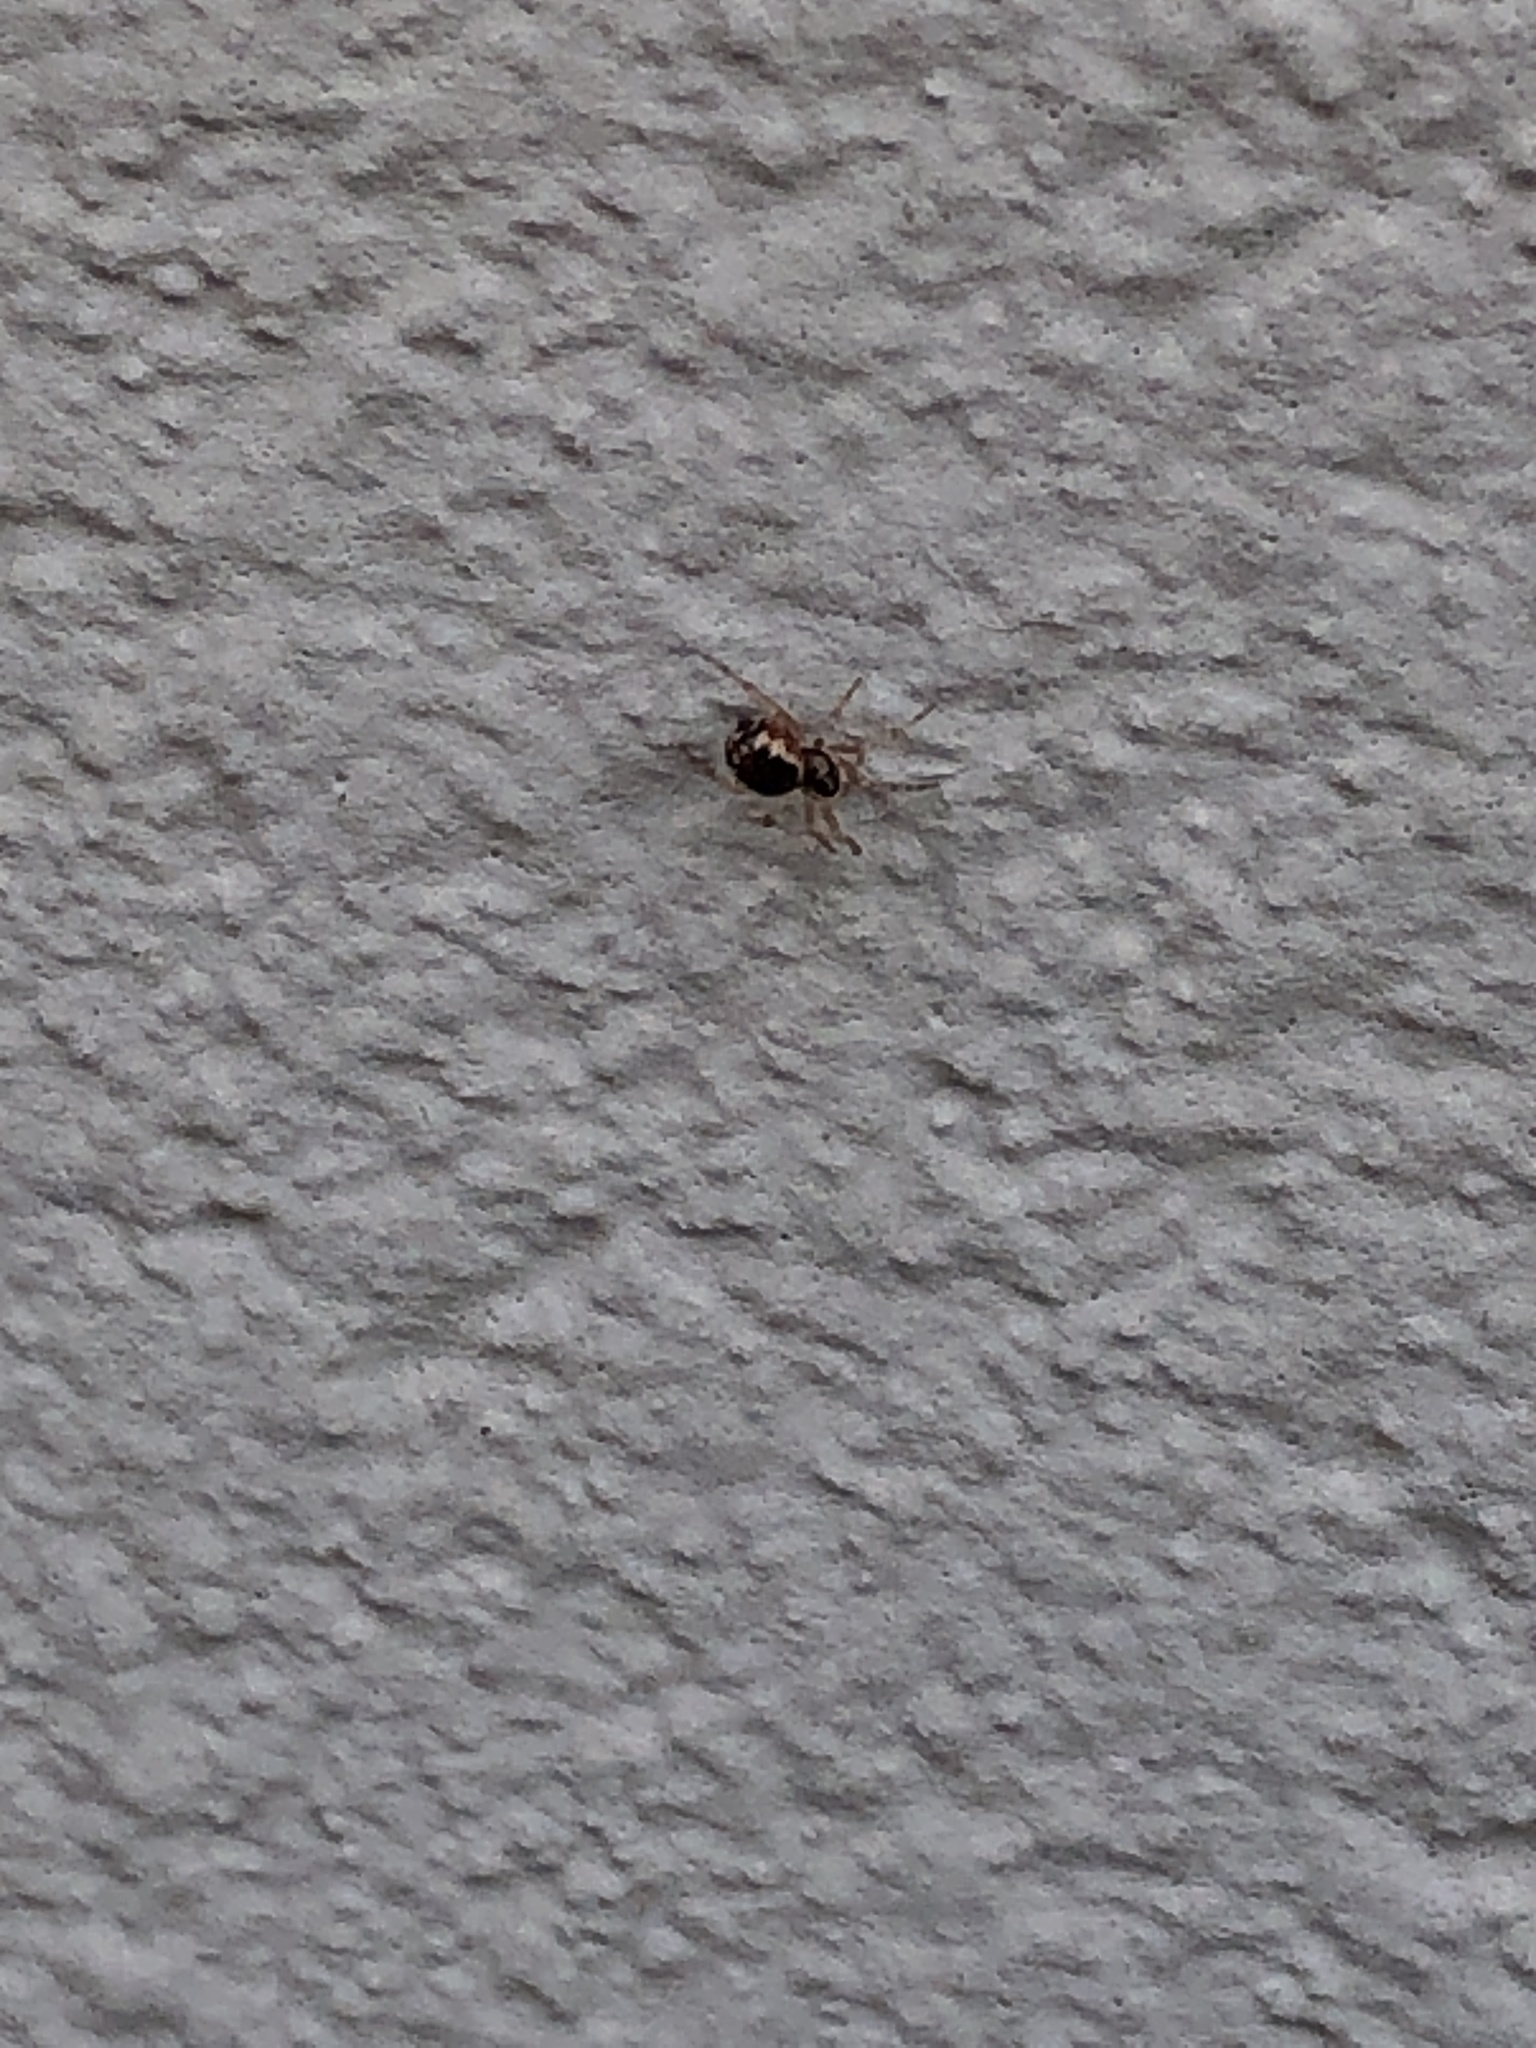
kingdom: Animalia
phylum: Arthropoda
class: Arachnida
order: Araneae
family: Theridiidae
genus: Sardinidion
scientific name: Sardinidion blackwalli
